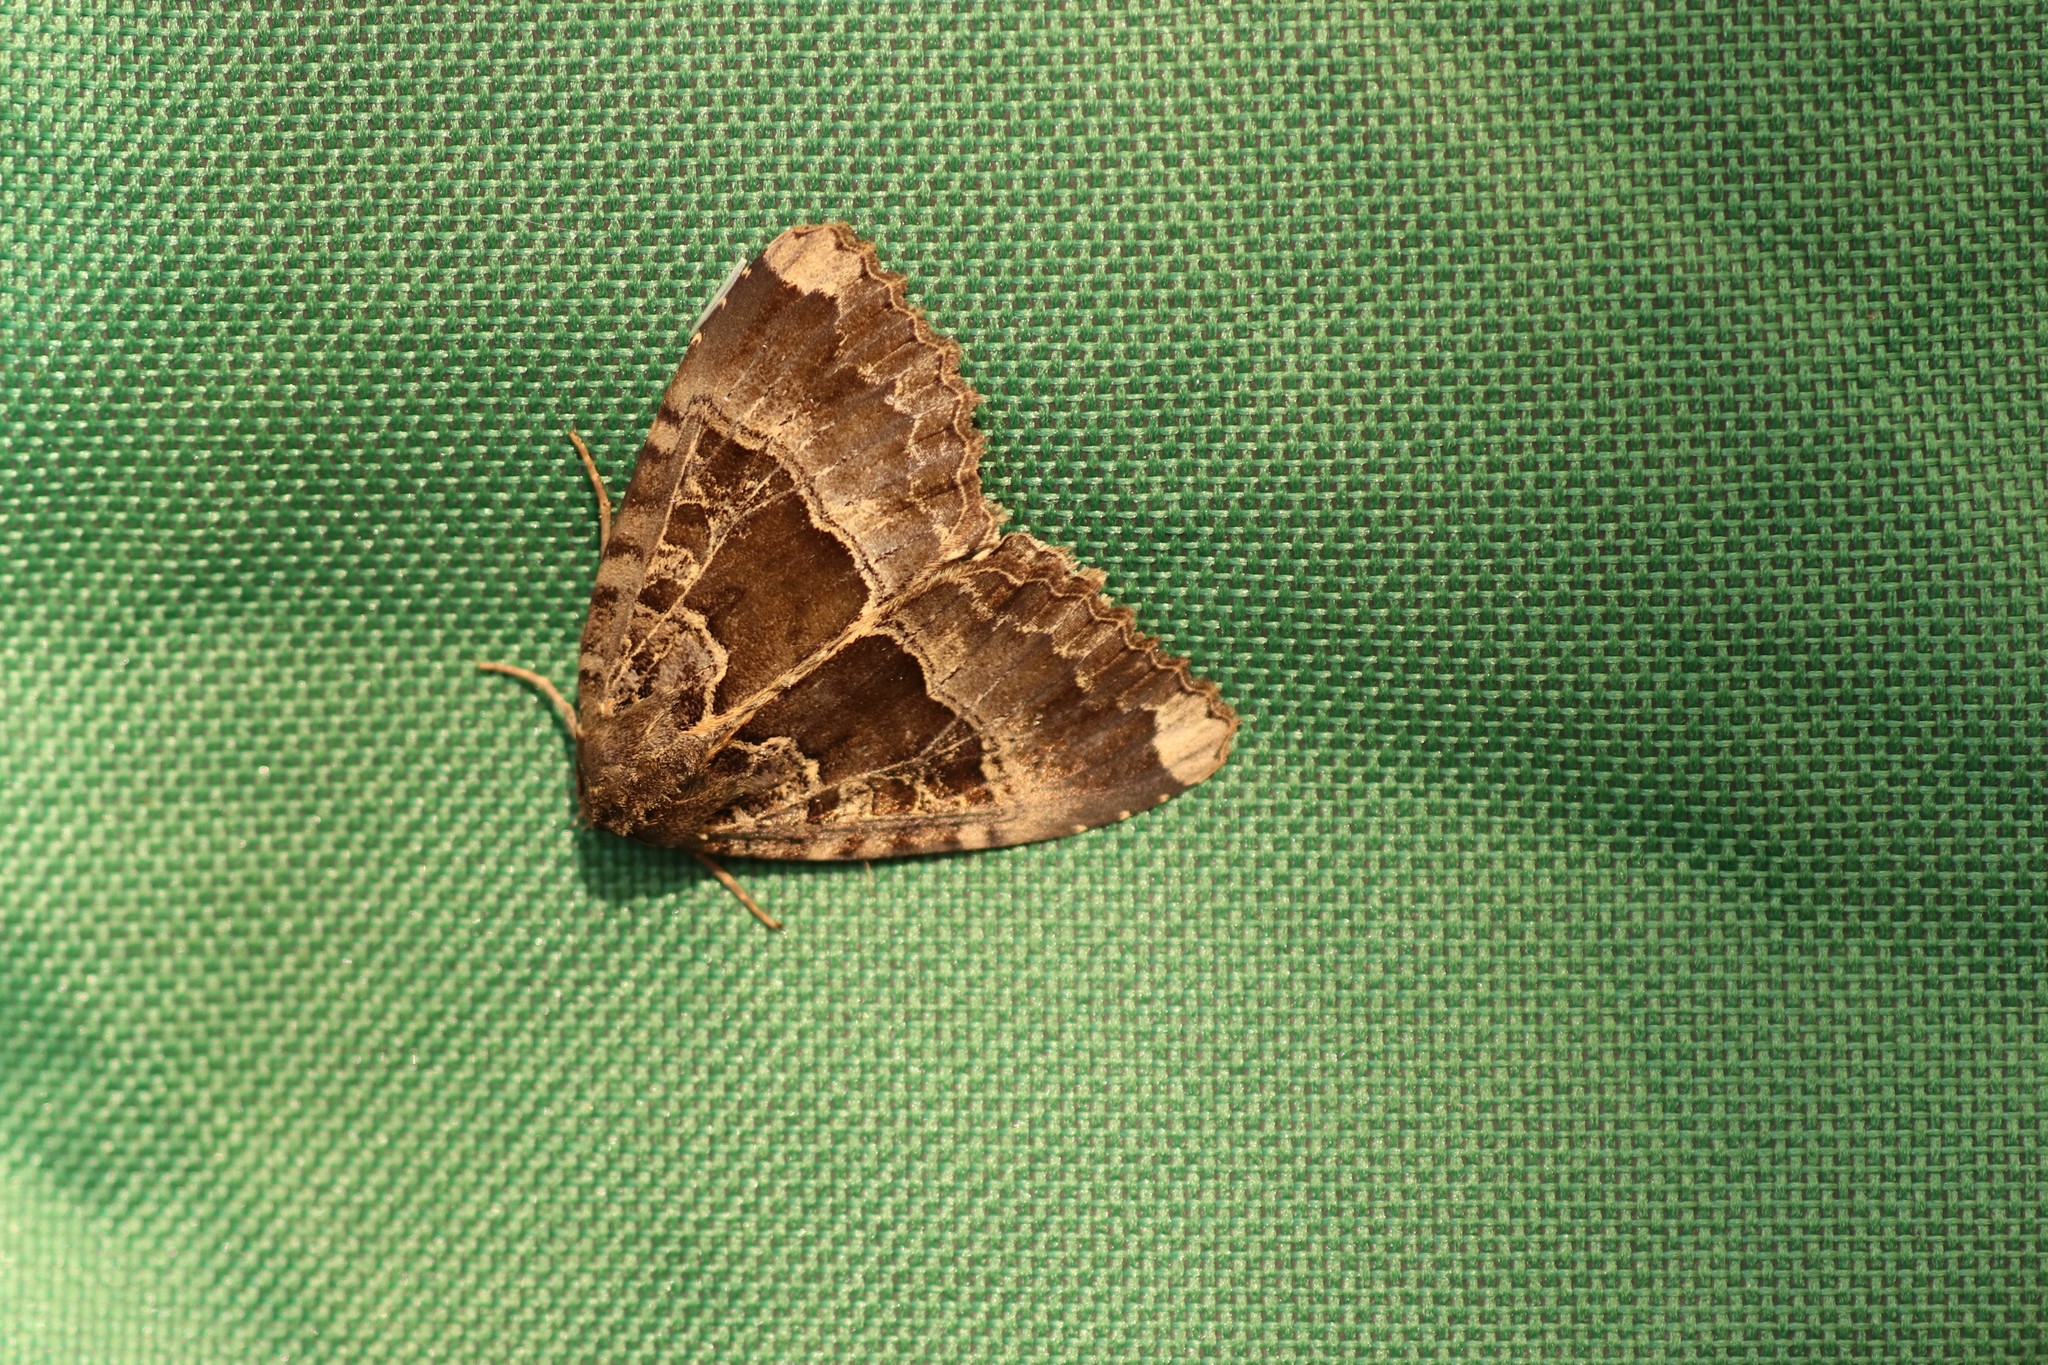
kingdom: Animalia
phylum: Arthropoda
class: Insecta
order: Lepidoptera
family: Noctuidae
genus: Mormo
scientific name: Mormo maura
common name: Old lady
